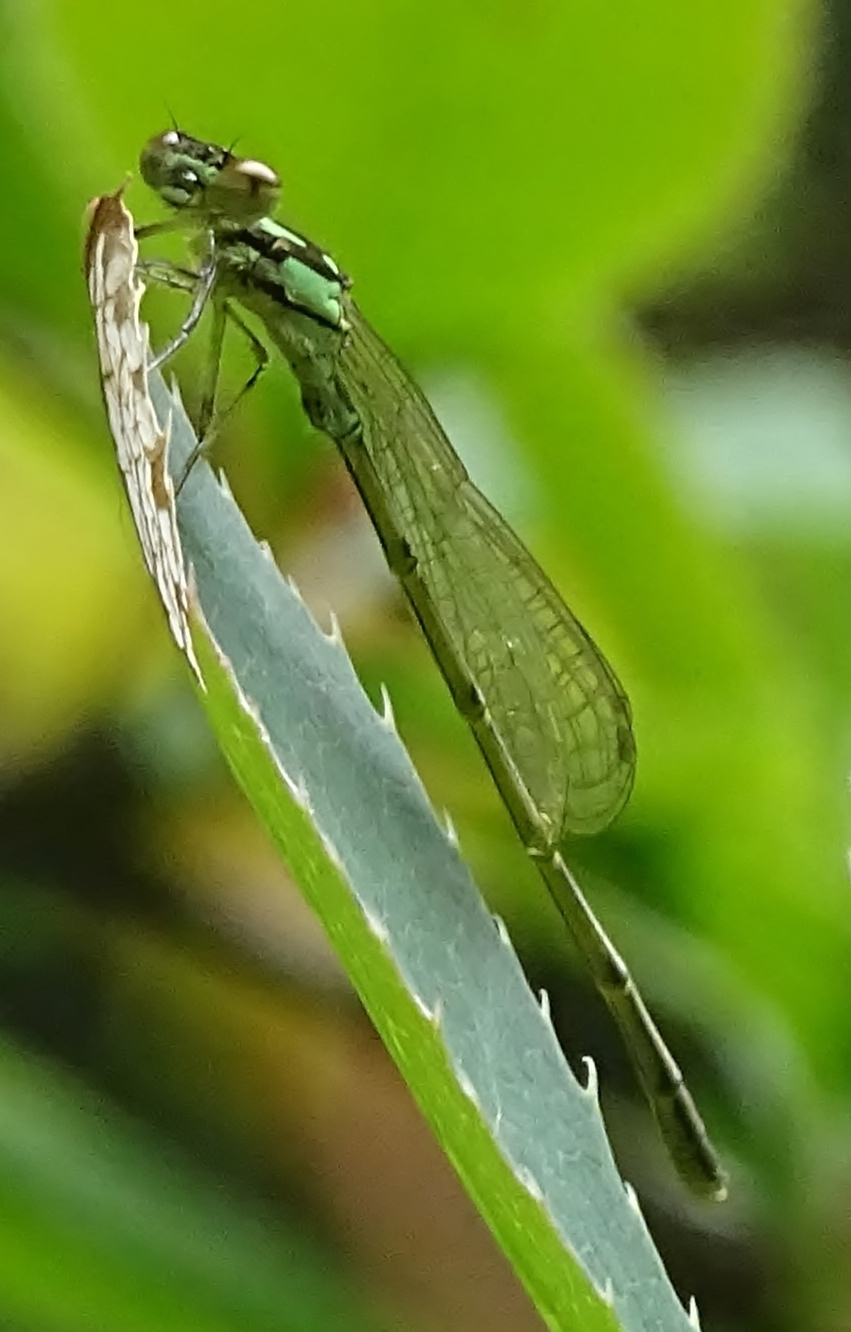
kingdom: Animalia
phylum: Arthropoda
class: Insecta
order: Odonata
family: Coenagrionidae
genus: Ischnura
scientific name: Ischnura posita
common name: Fragile forktail
